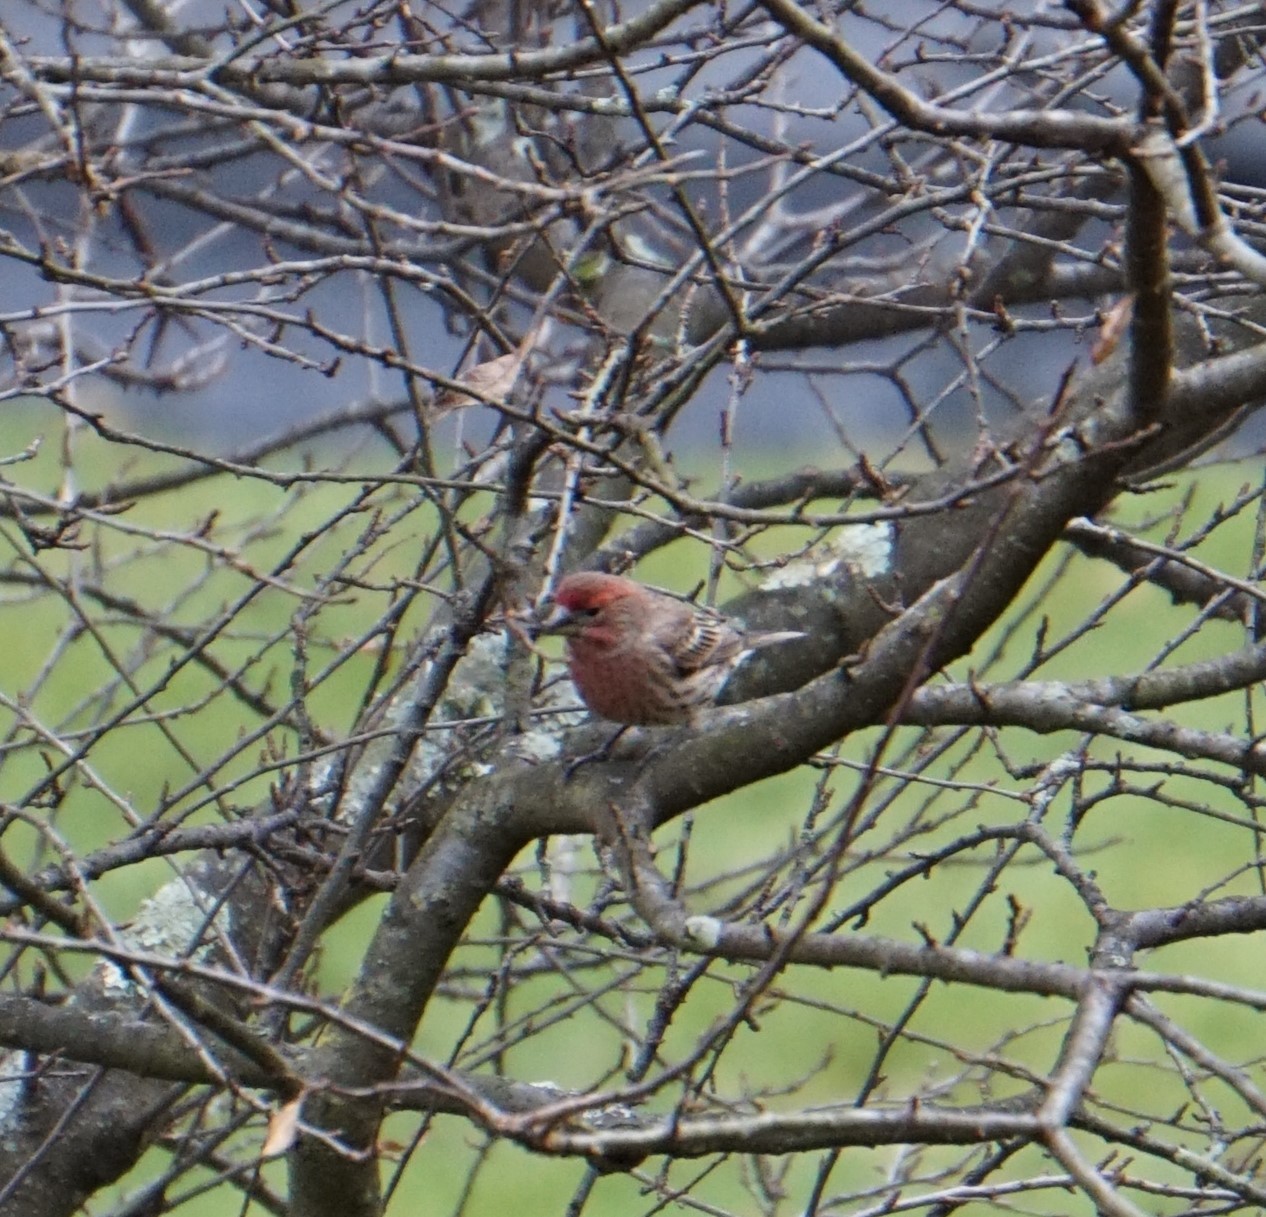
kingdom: Animalia
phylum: Chordata
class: Aves
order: Passeriformes
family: Fringillidae
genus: Haemorhous
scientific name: Haemorhous mexicanus
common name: House finch
